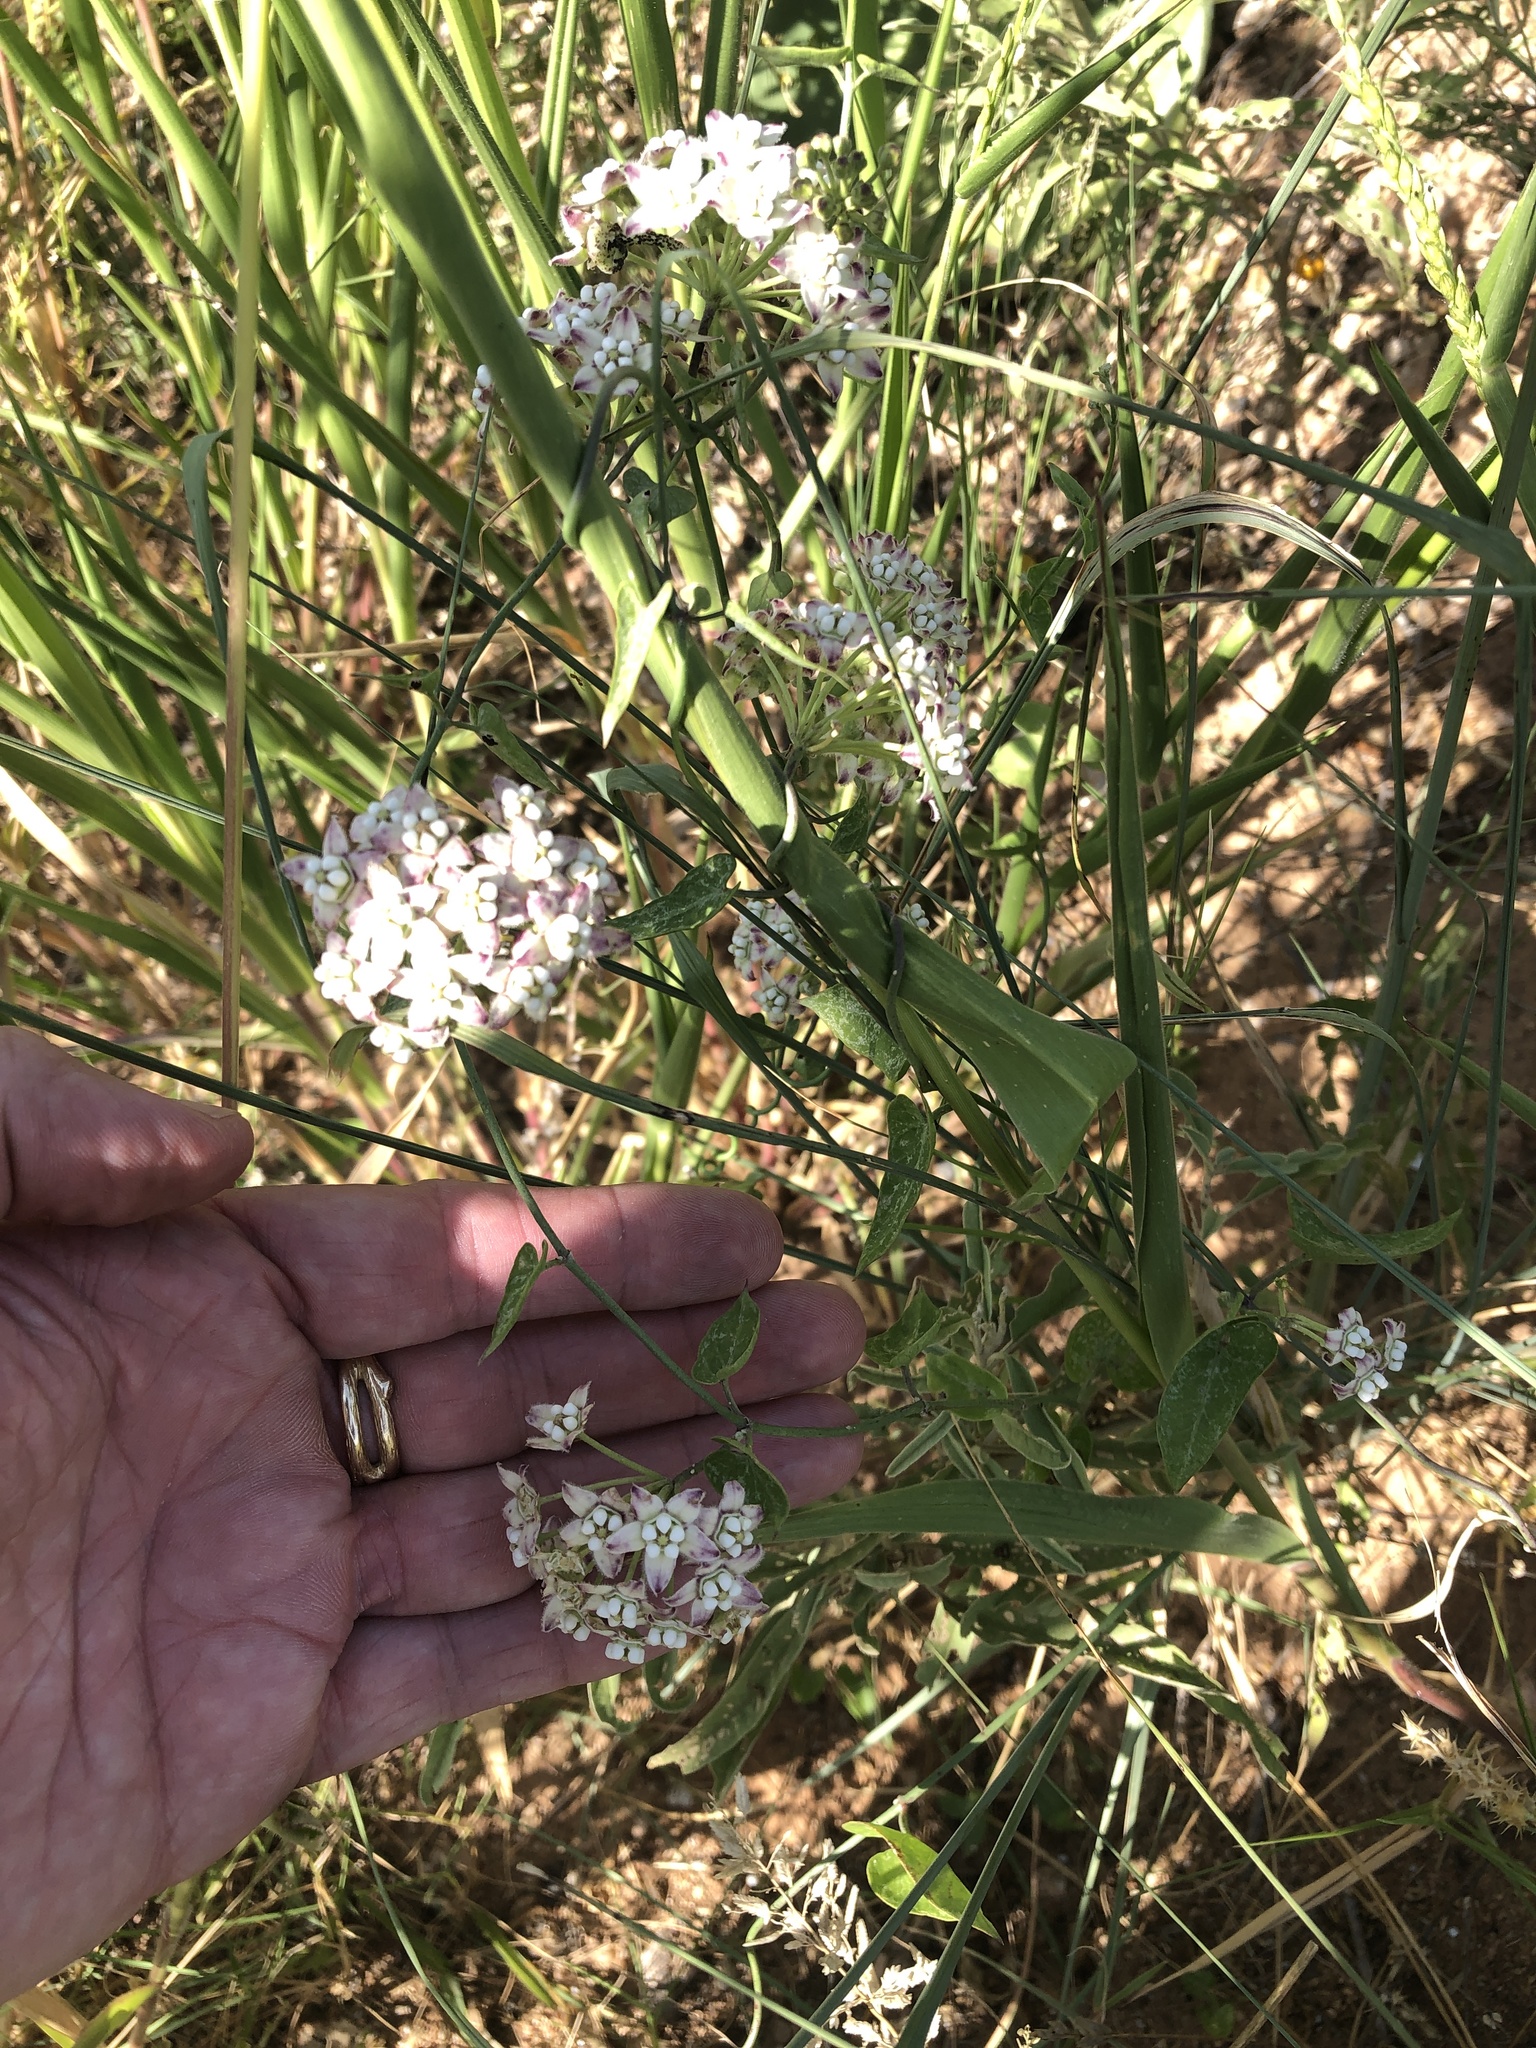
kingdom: Plantae
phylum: Tracheophyta
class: Magnoliopsida
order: Gentianales
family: Apocynaceae
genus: Funastrum
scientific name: Funastrum cynanchoides
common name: Climbing-milkweed
